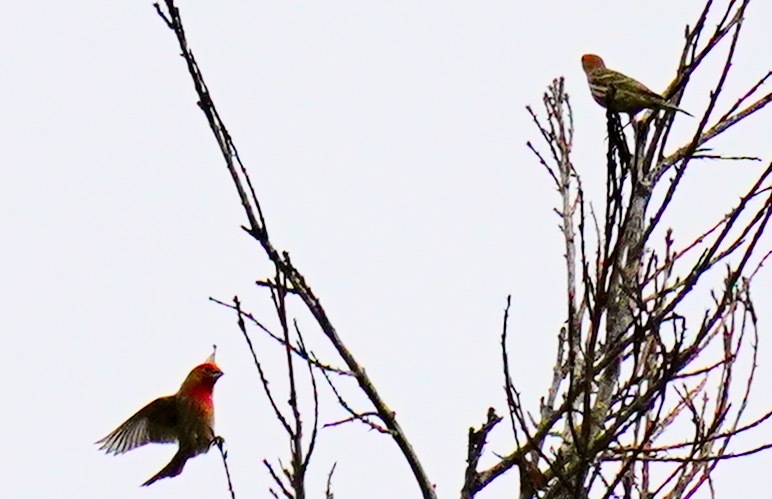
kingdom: Animalia
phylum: Chordata
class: Aves
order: Passeriformes
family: Fringillidae
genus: Haemorhous
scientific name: Haemorhous mexicanus
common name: House finch
